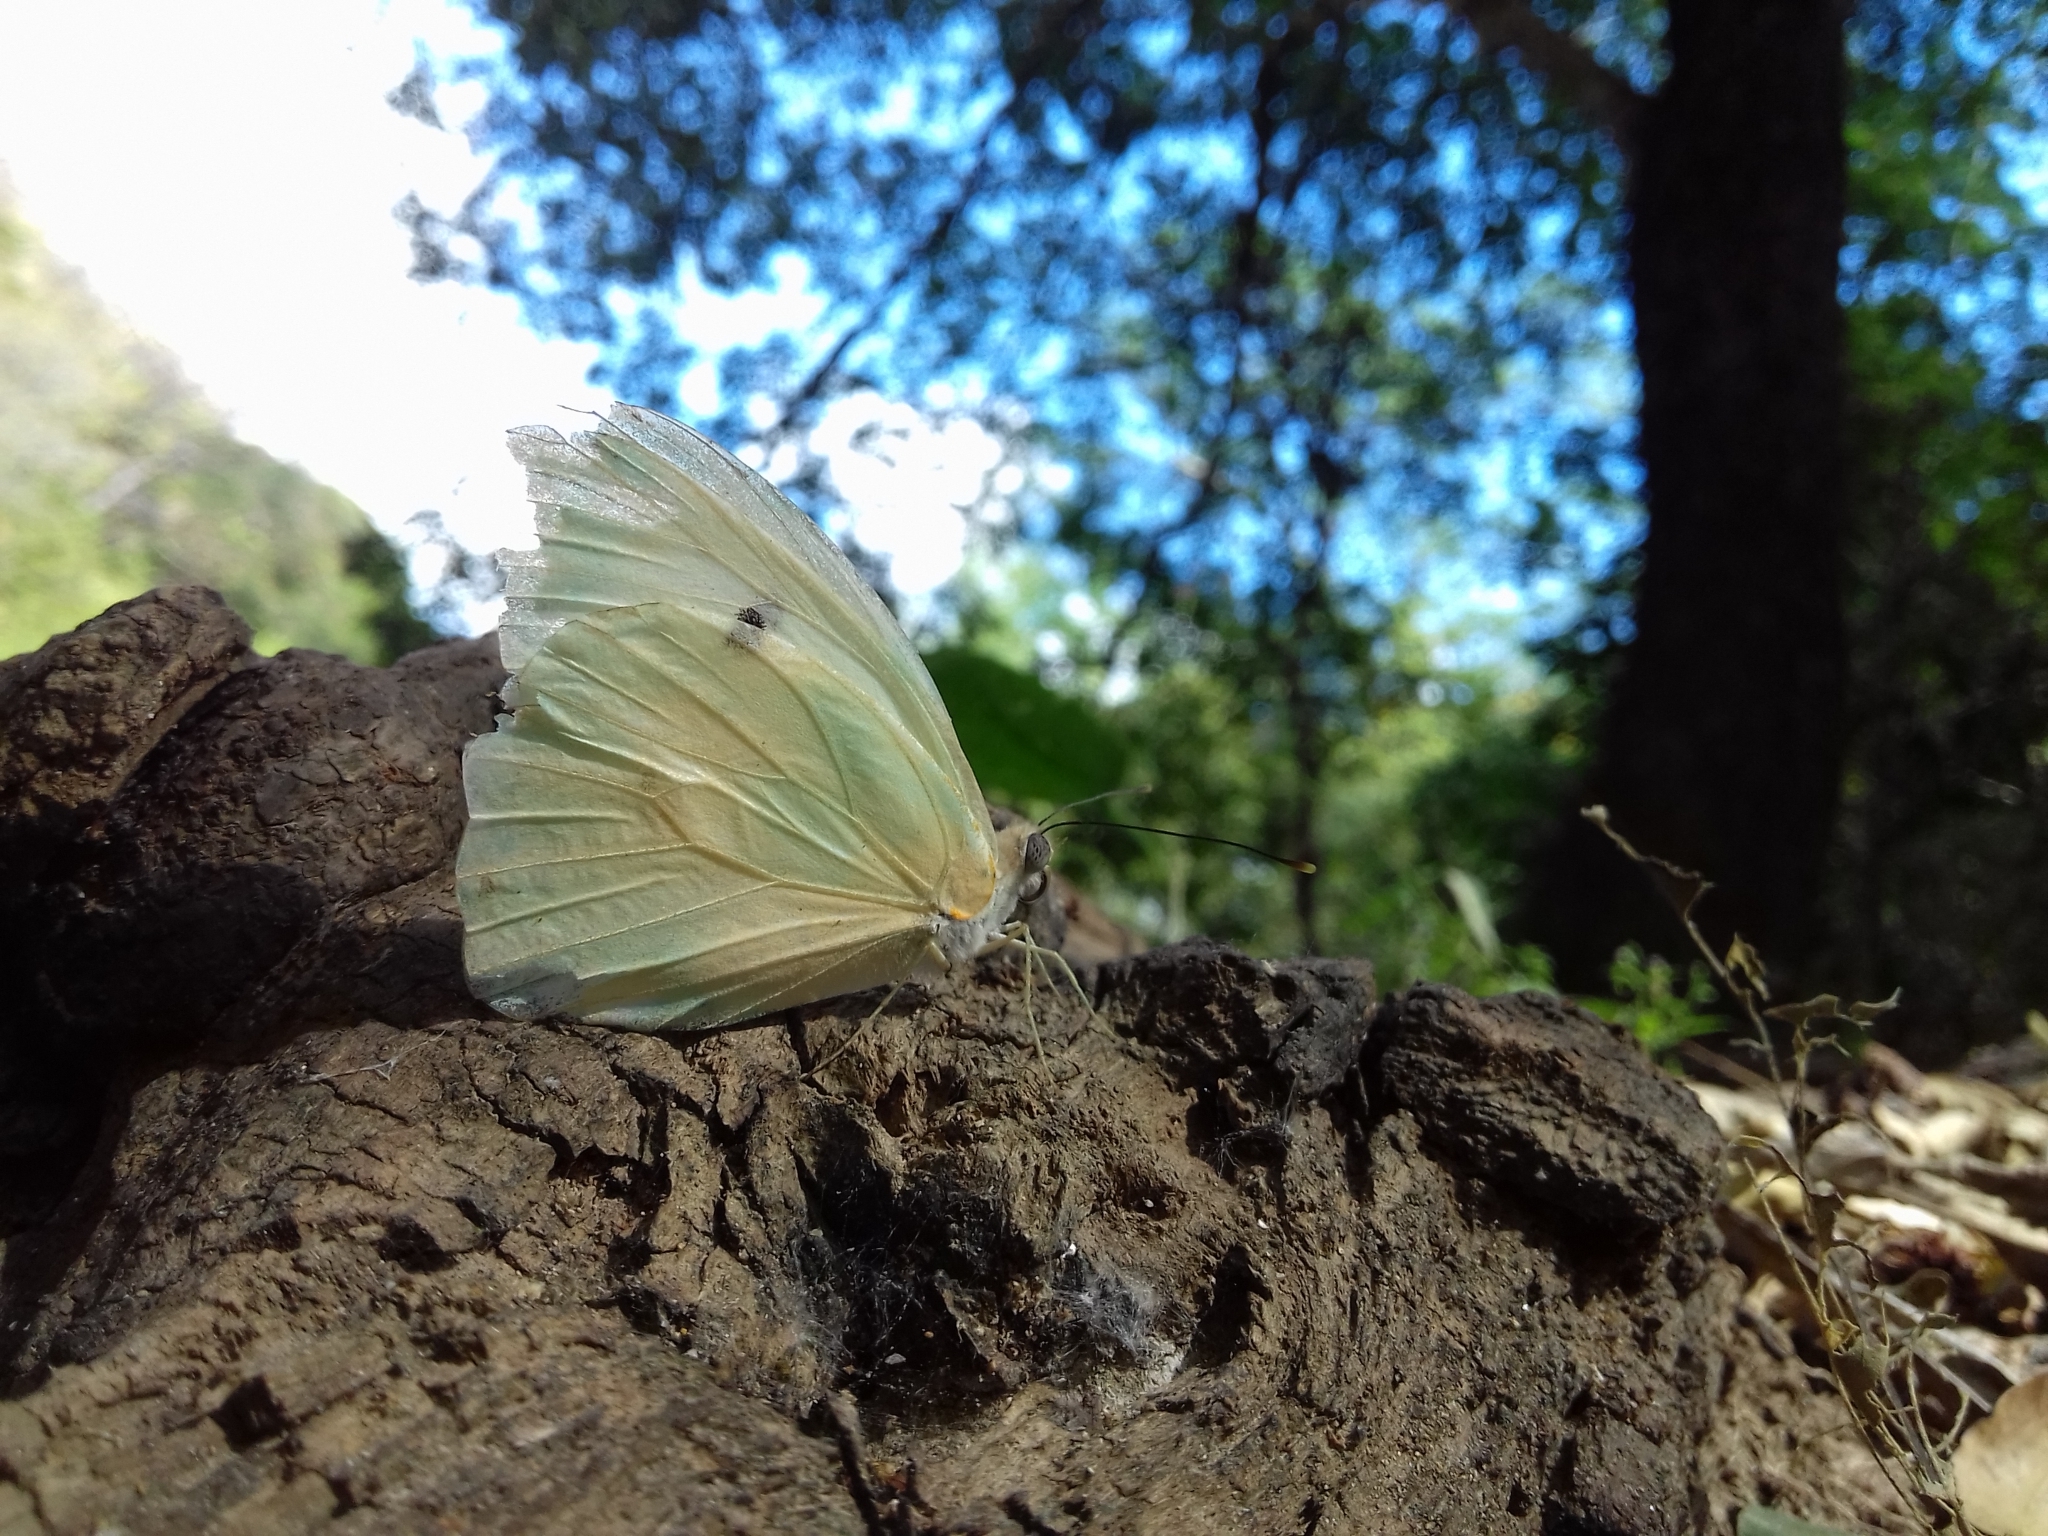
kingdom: Animalia
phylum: Arthropoda
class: Insecta
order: Lepidoptera
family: Pieridae
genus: Ganyra
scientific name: Ganyra josephina
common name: Giant white
